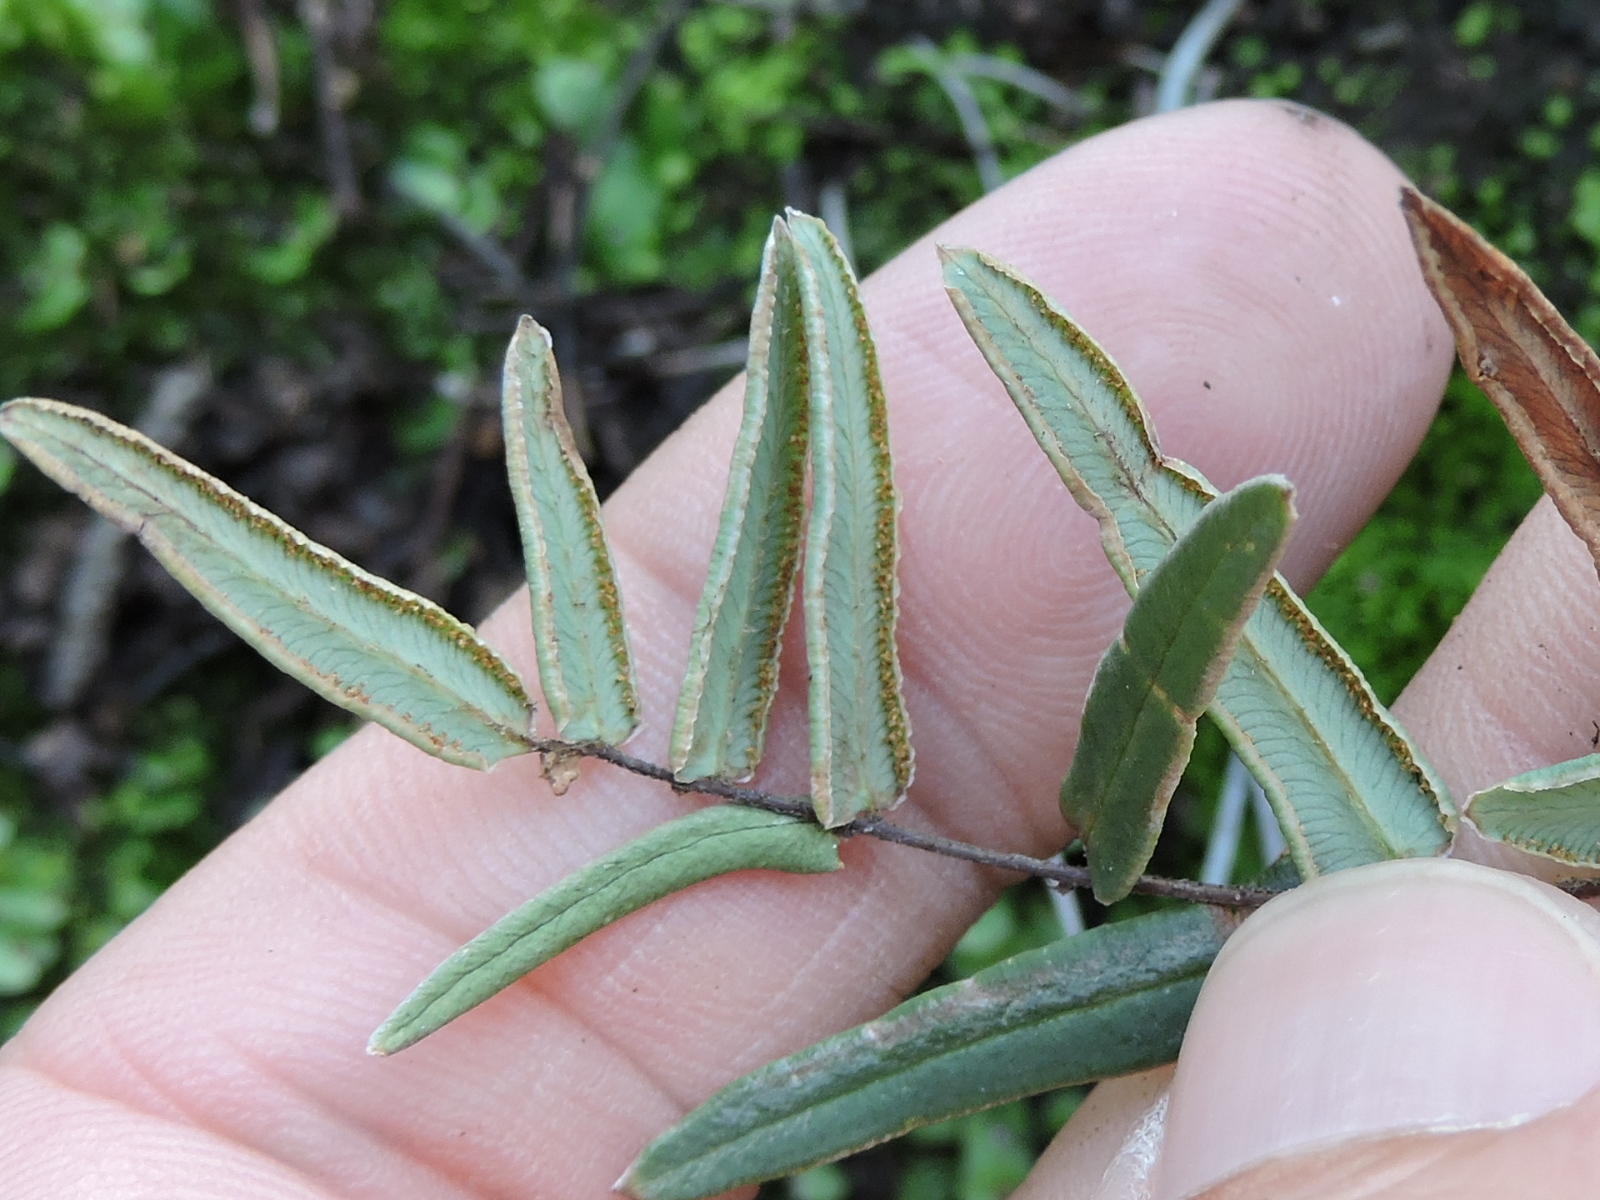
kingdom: Plantae
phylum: Tracheophyta
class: Polypodiopsida
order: Polypodiales
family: Pteridaceae
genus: Pellaea
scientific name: Pellaea atropurpurea
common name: Hairy cliffbrake
